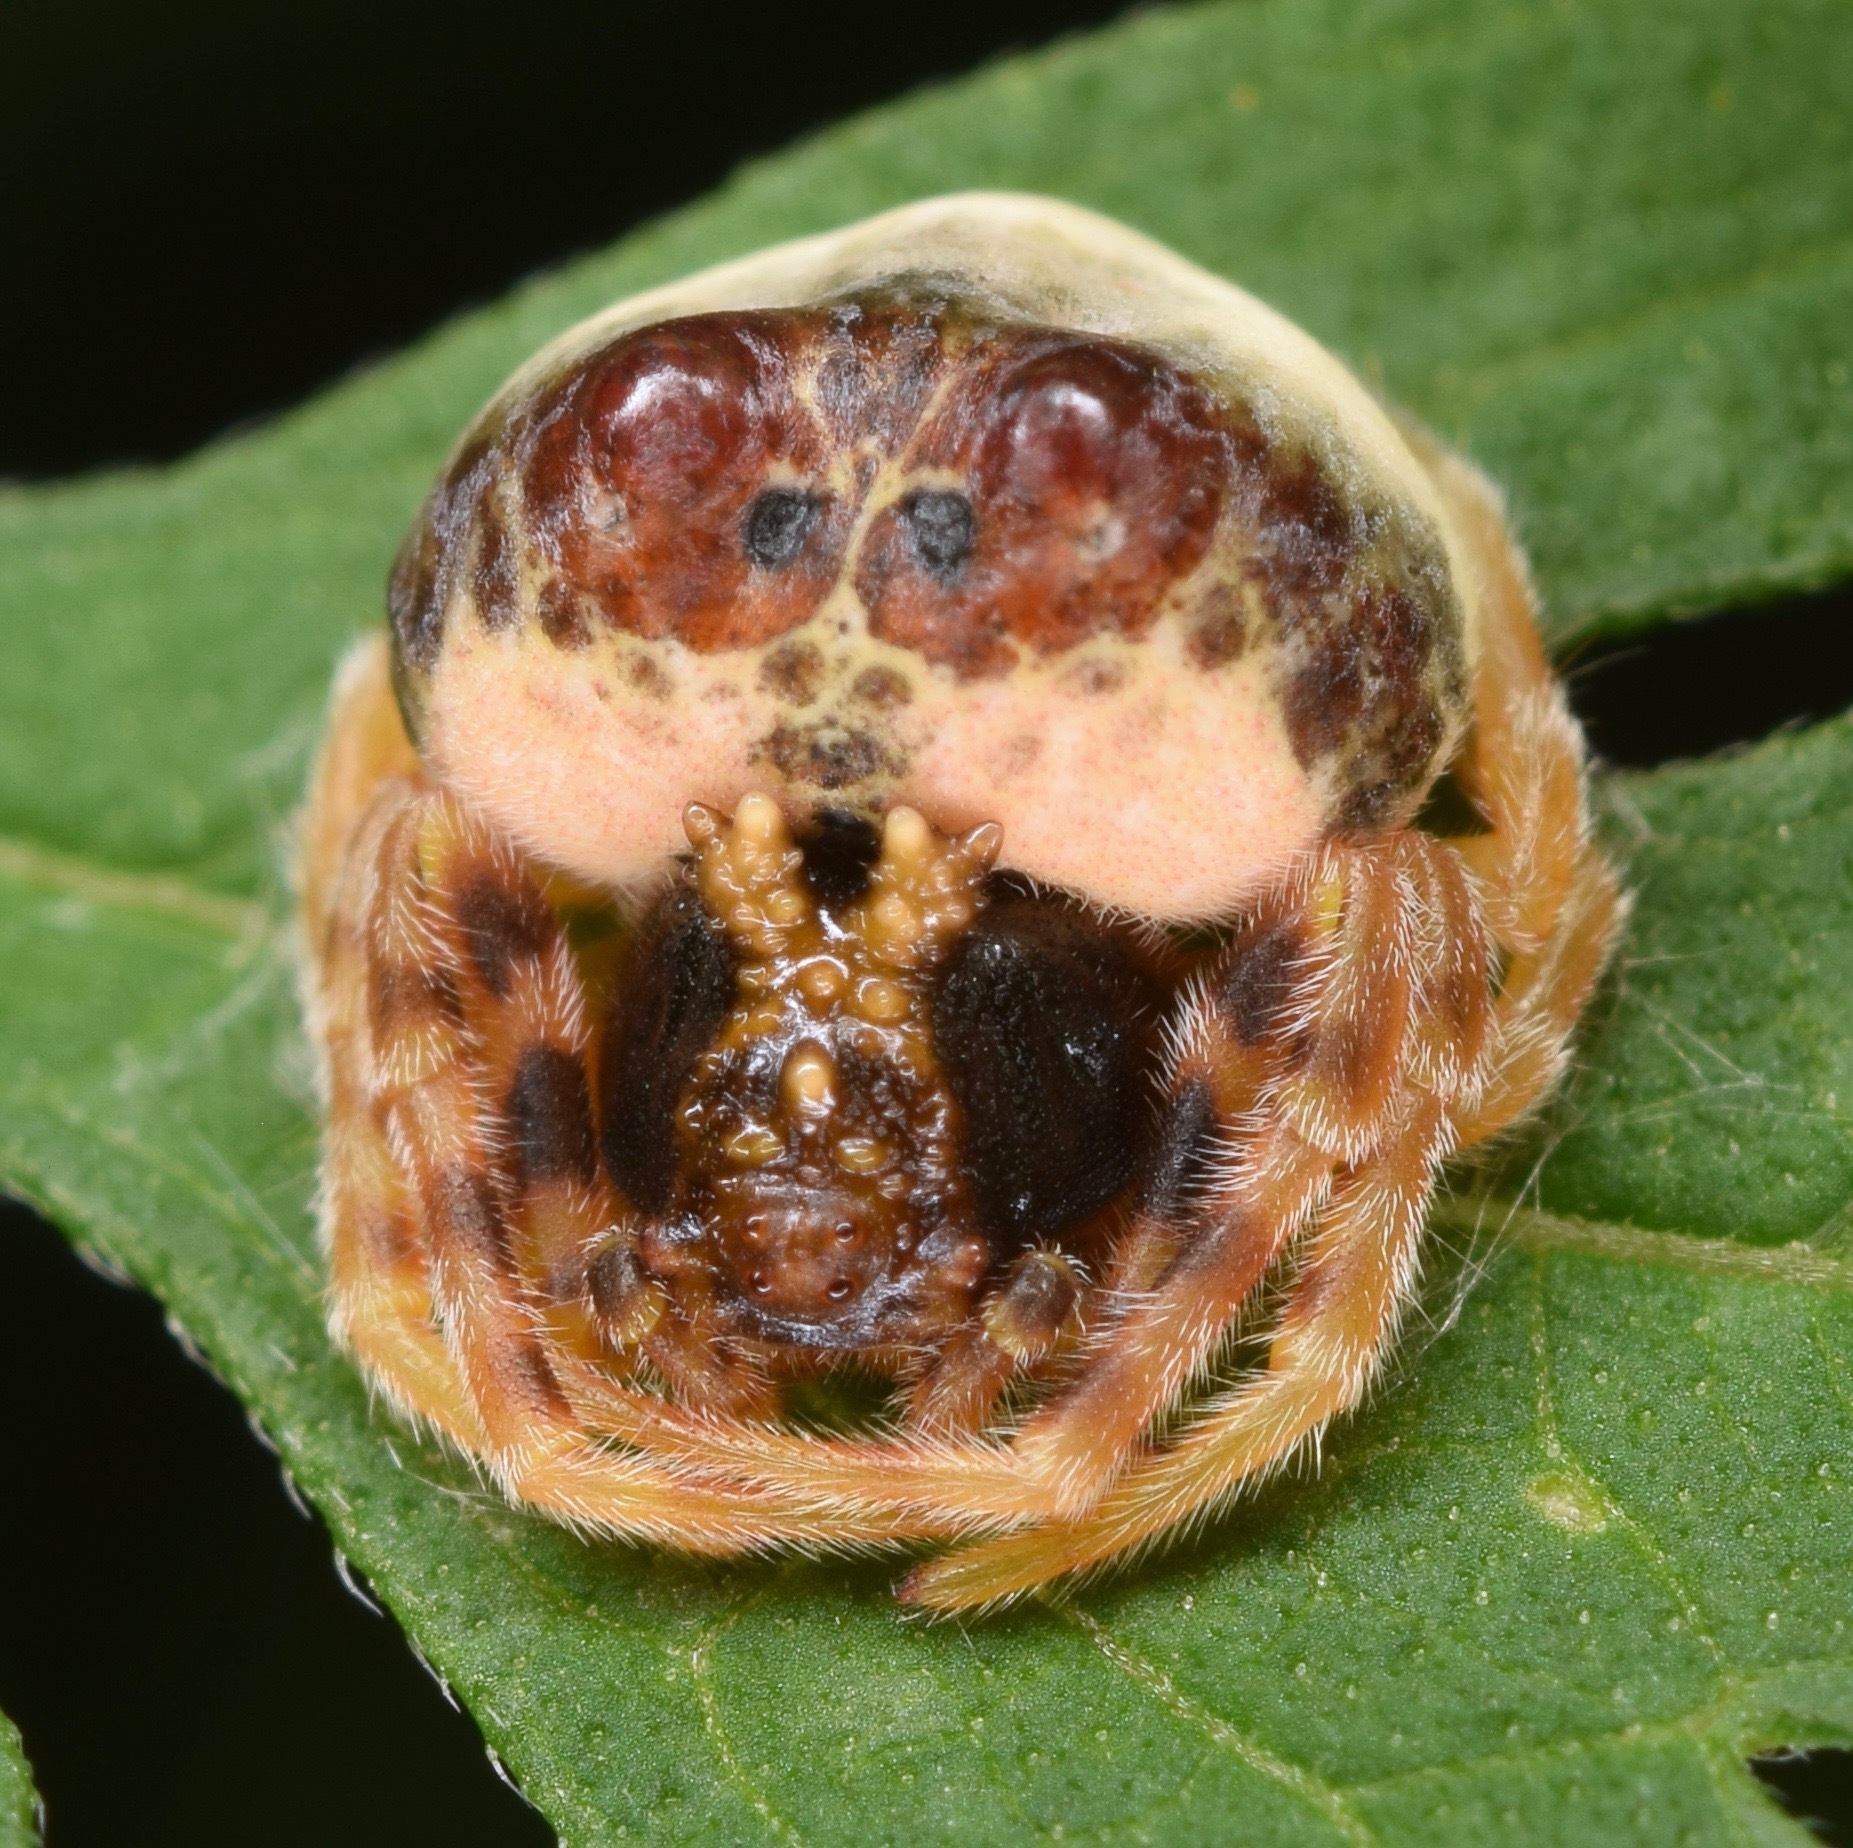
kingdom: Animalia
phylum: Arthropoda
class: Arachnida
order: Araneae
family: Araneidae
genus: Mastophora
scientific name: Mastophora hutchinsoni
